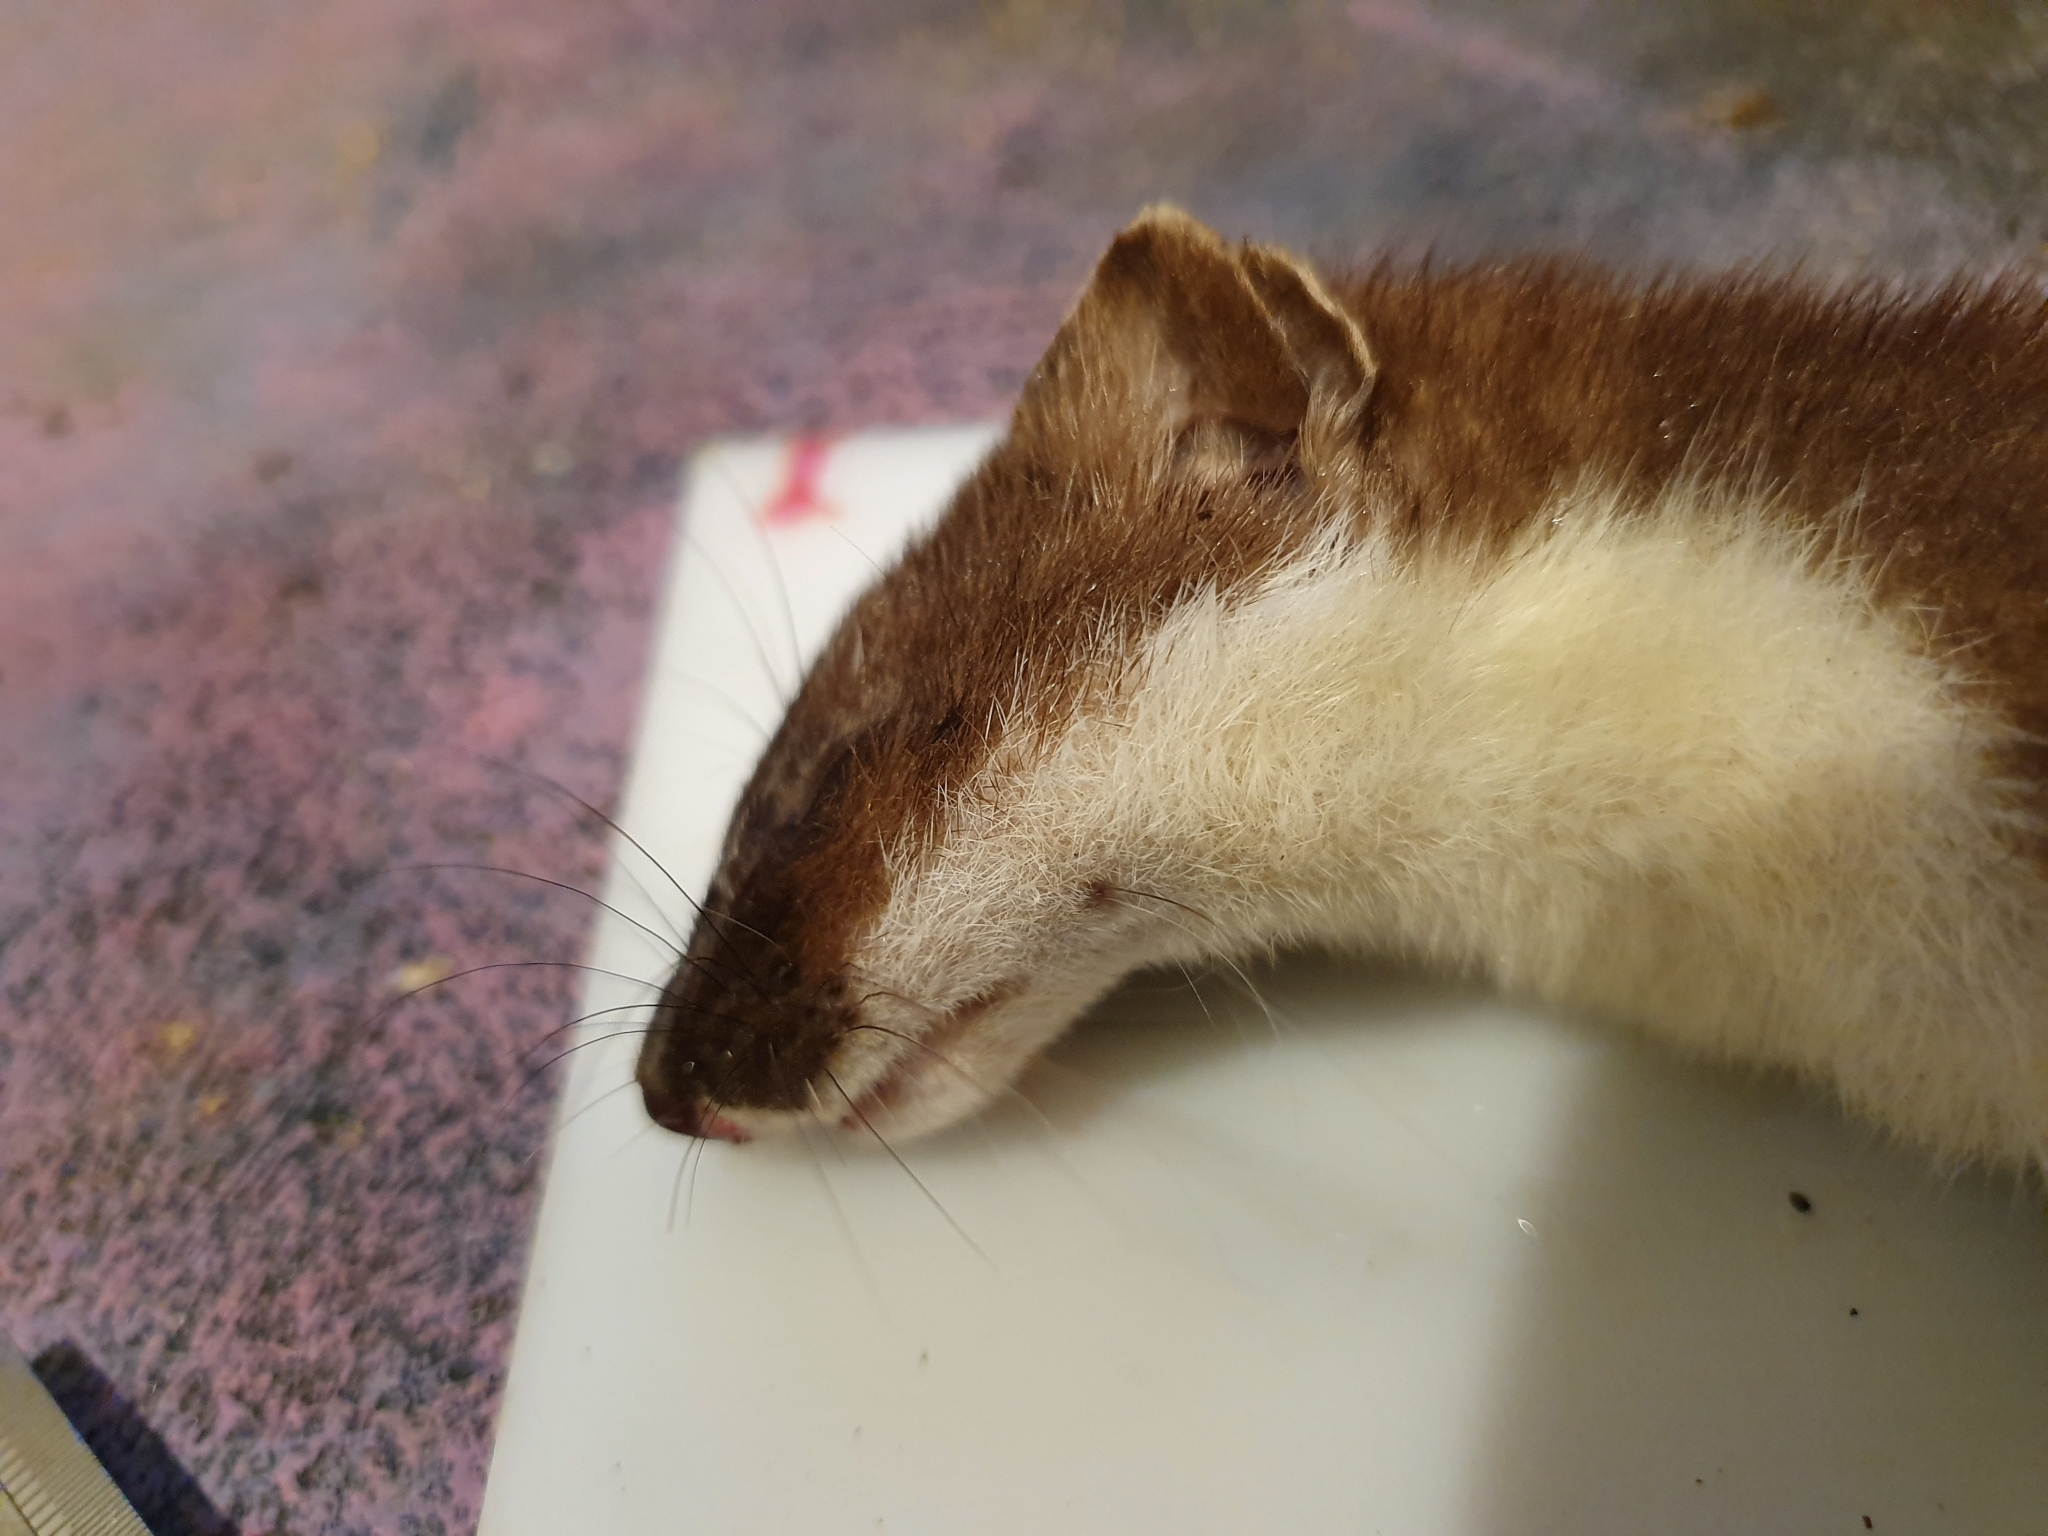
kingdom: Animalia
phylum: Chordata
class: Mammalia
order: Carnivora
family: Mustelidae
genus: Mustela
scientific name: Mustela erminea
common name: Stoat
